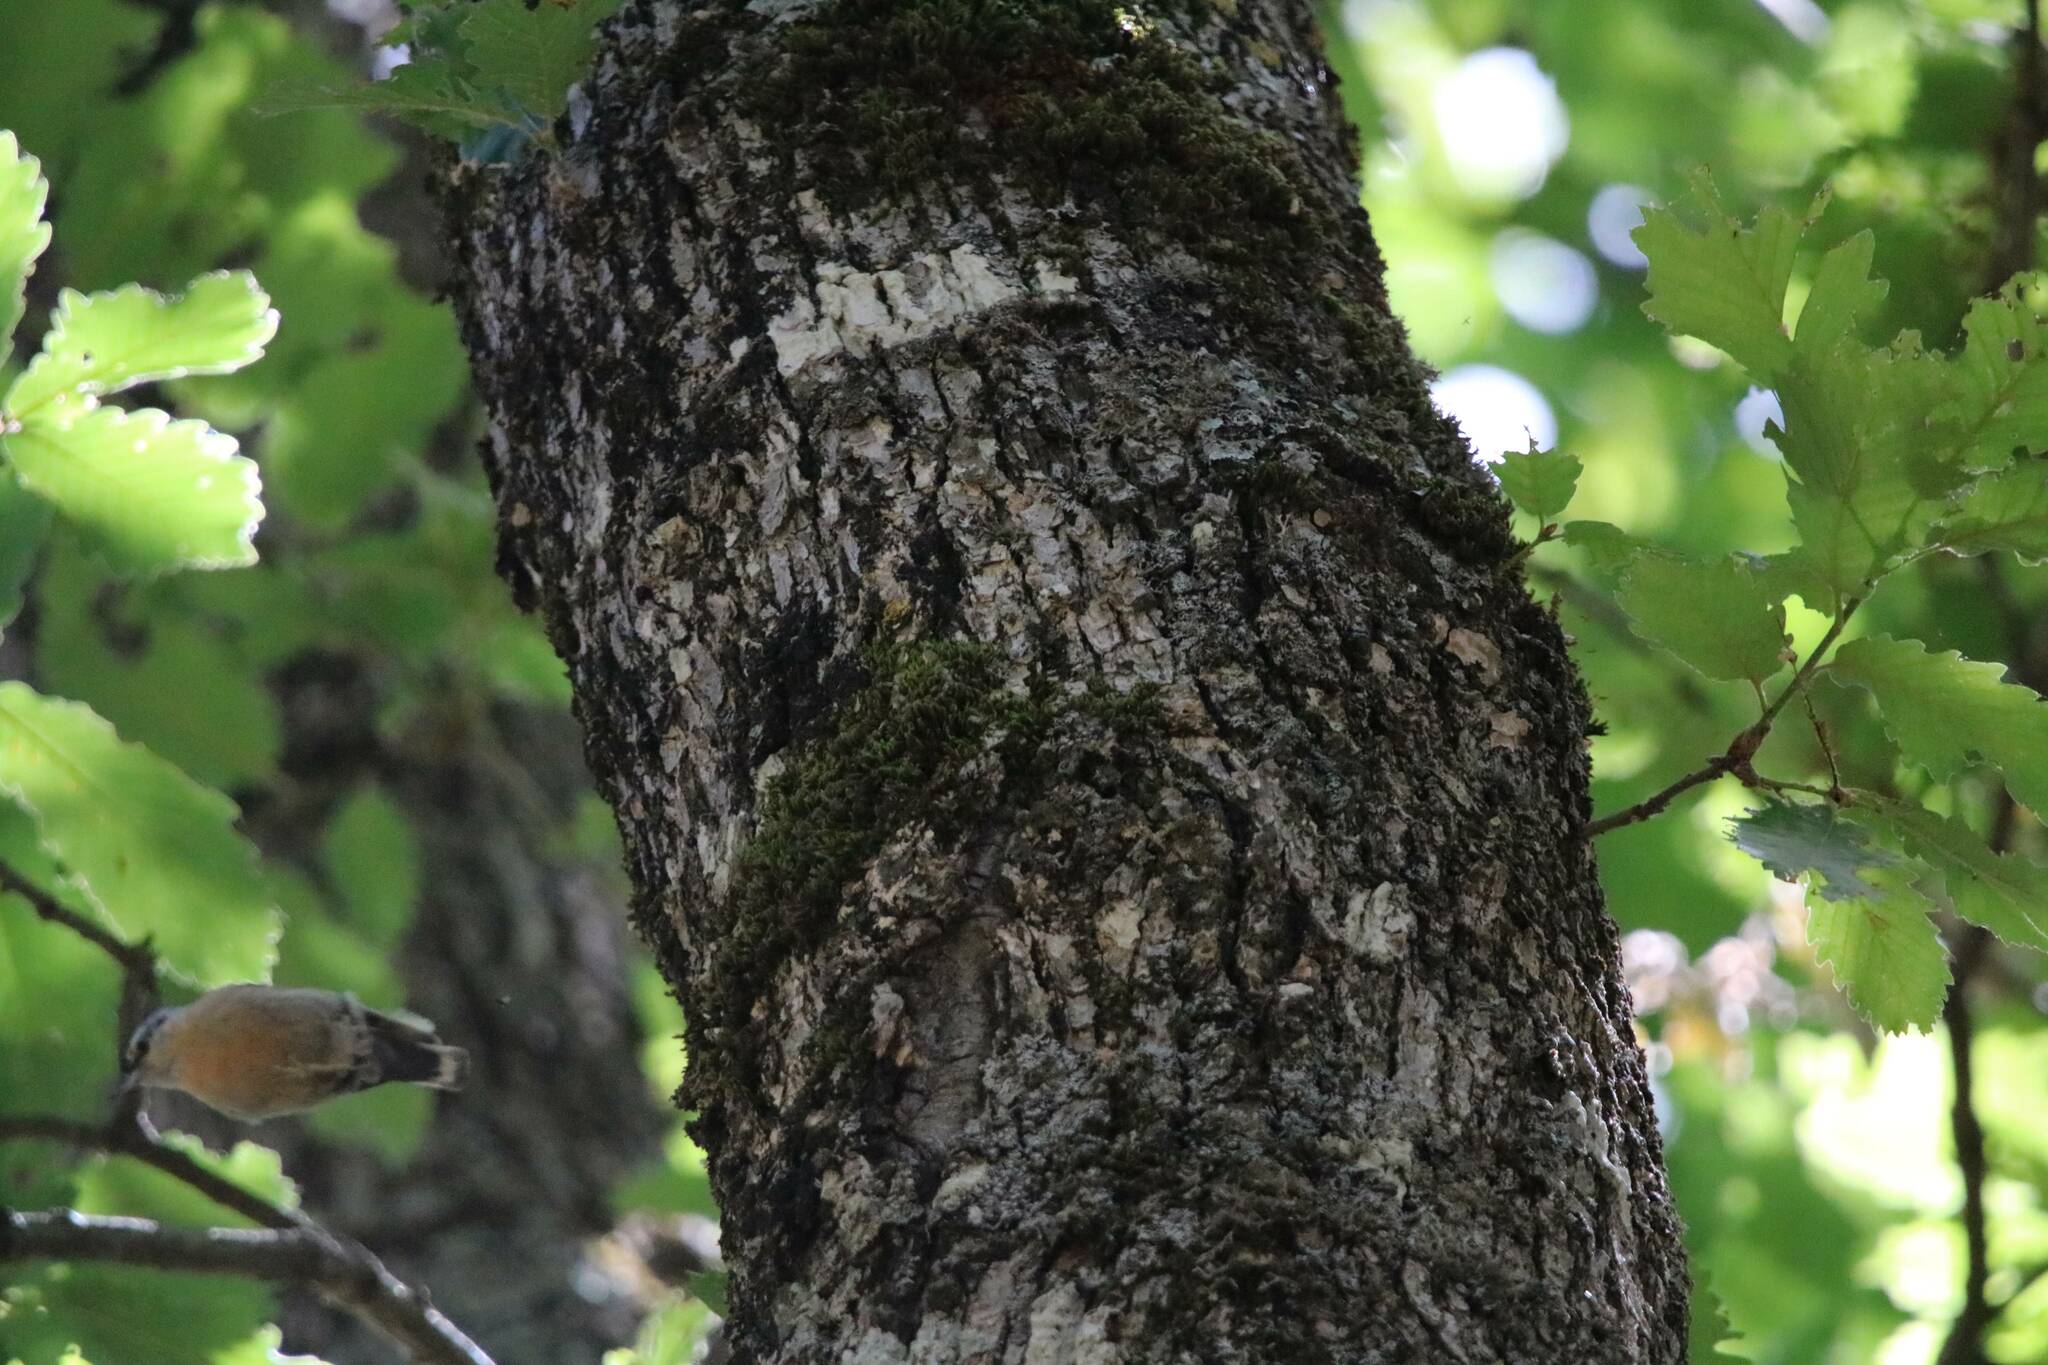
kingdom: Animalia
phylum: Chordata
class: Aves
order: Passeriformes
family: Sittidae
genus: Sitta
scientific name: Sitta ledanti
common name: Algerian nuthatch
